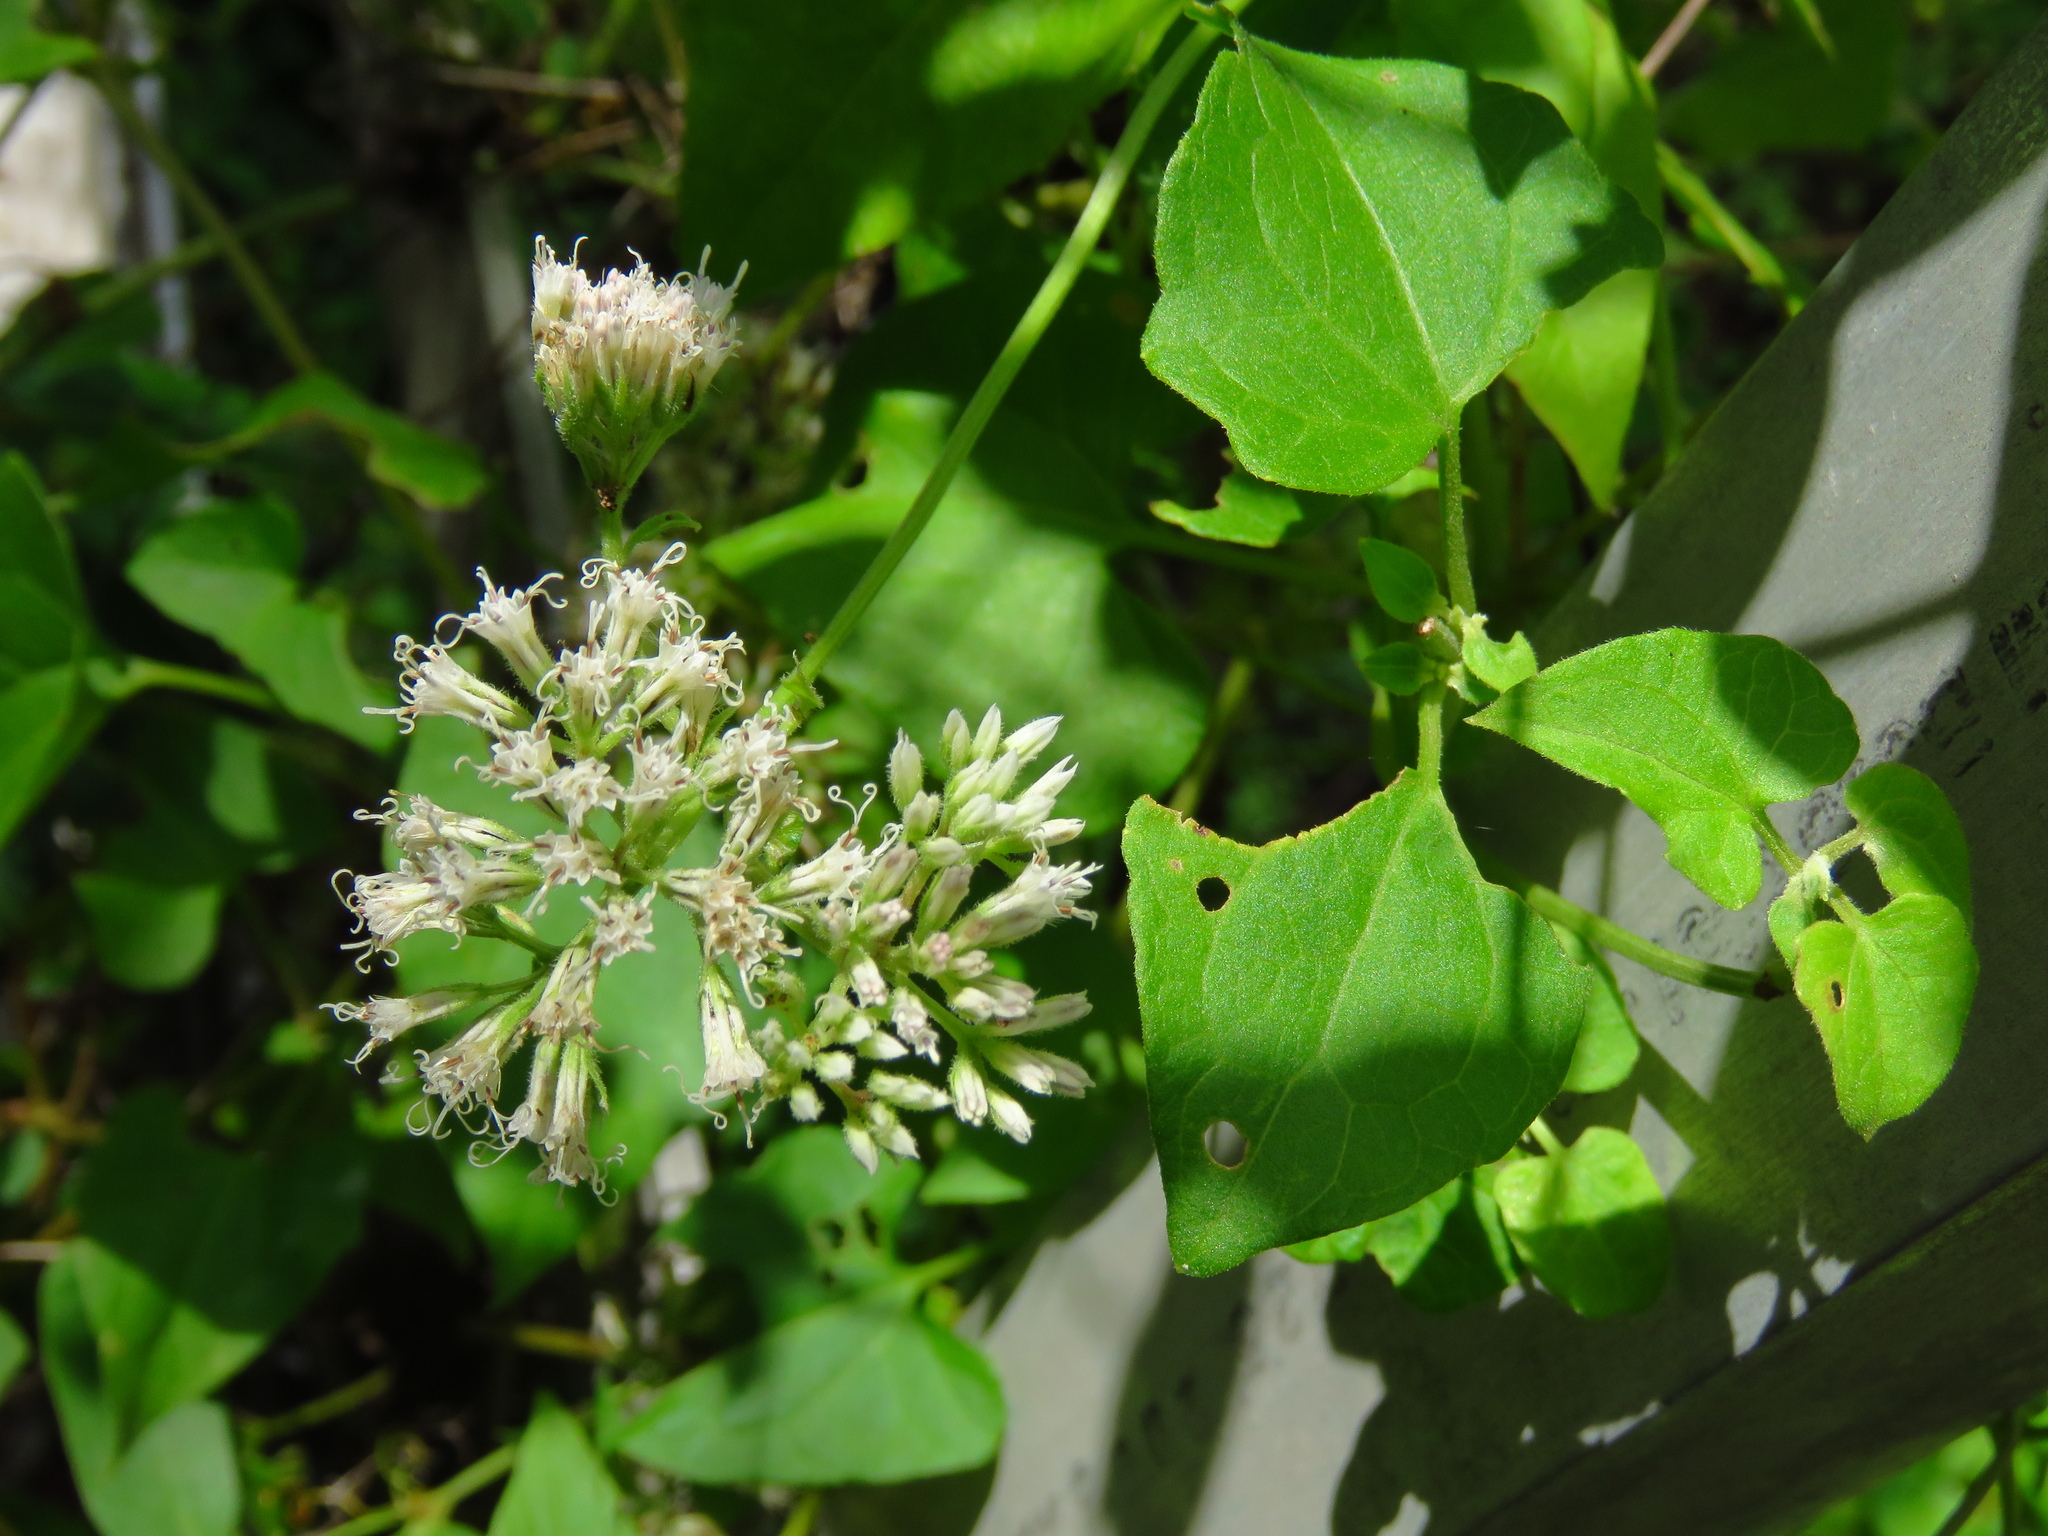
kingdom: Plantae
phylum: Tracheophyta
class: Magnoliopsida
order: Asterales
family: Asteraceae
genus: Mikania
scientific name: Mikania scandens
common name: Climbing hempvine
